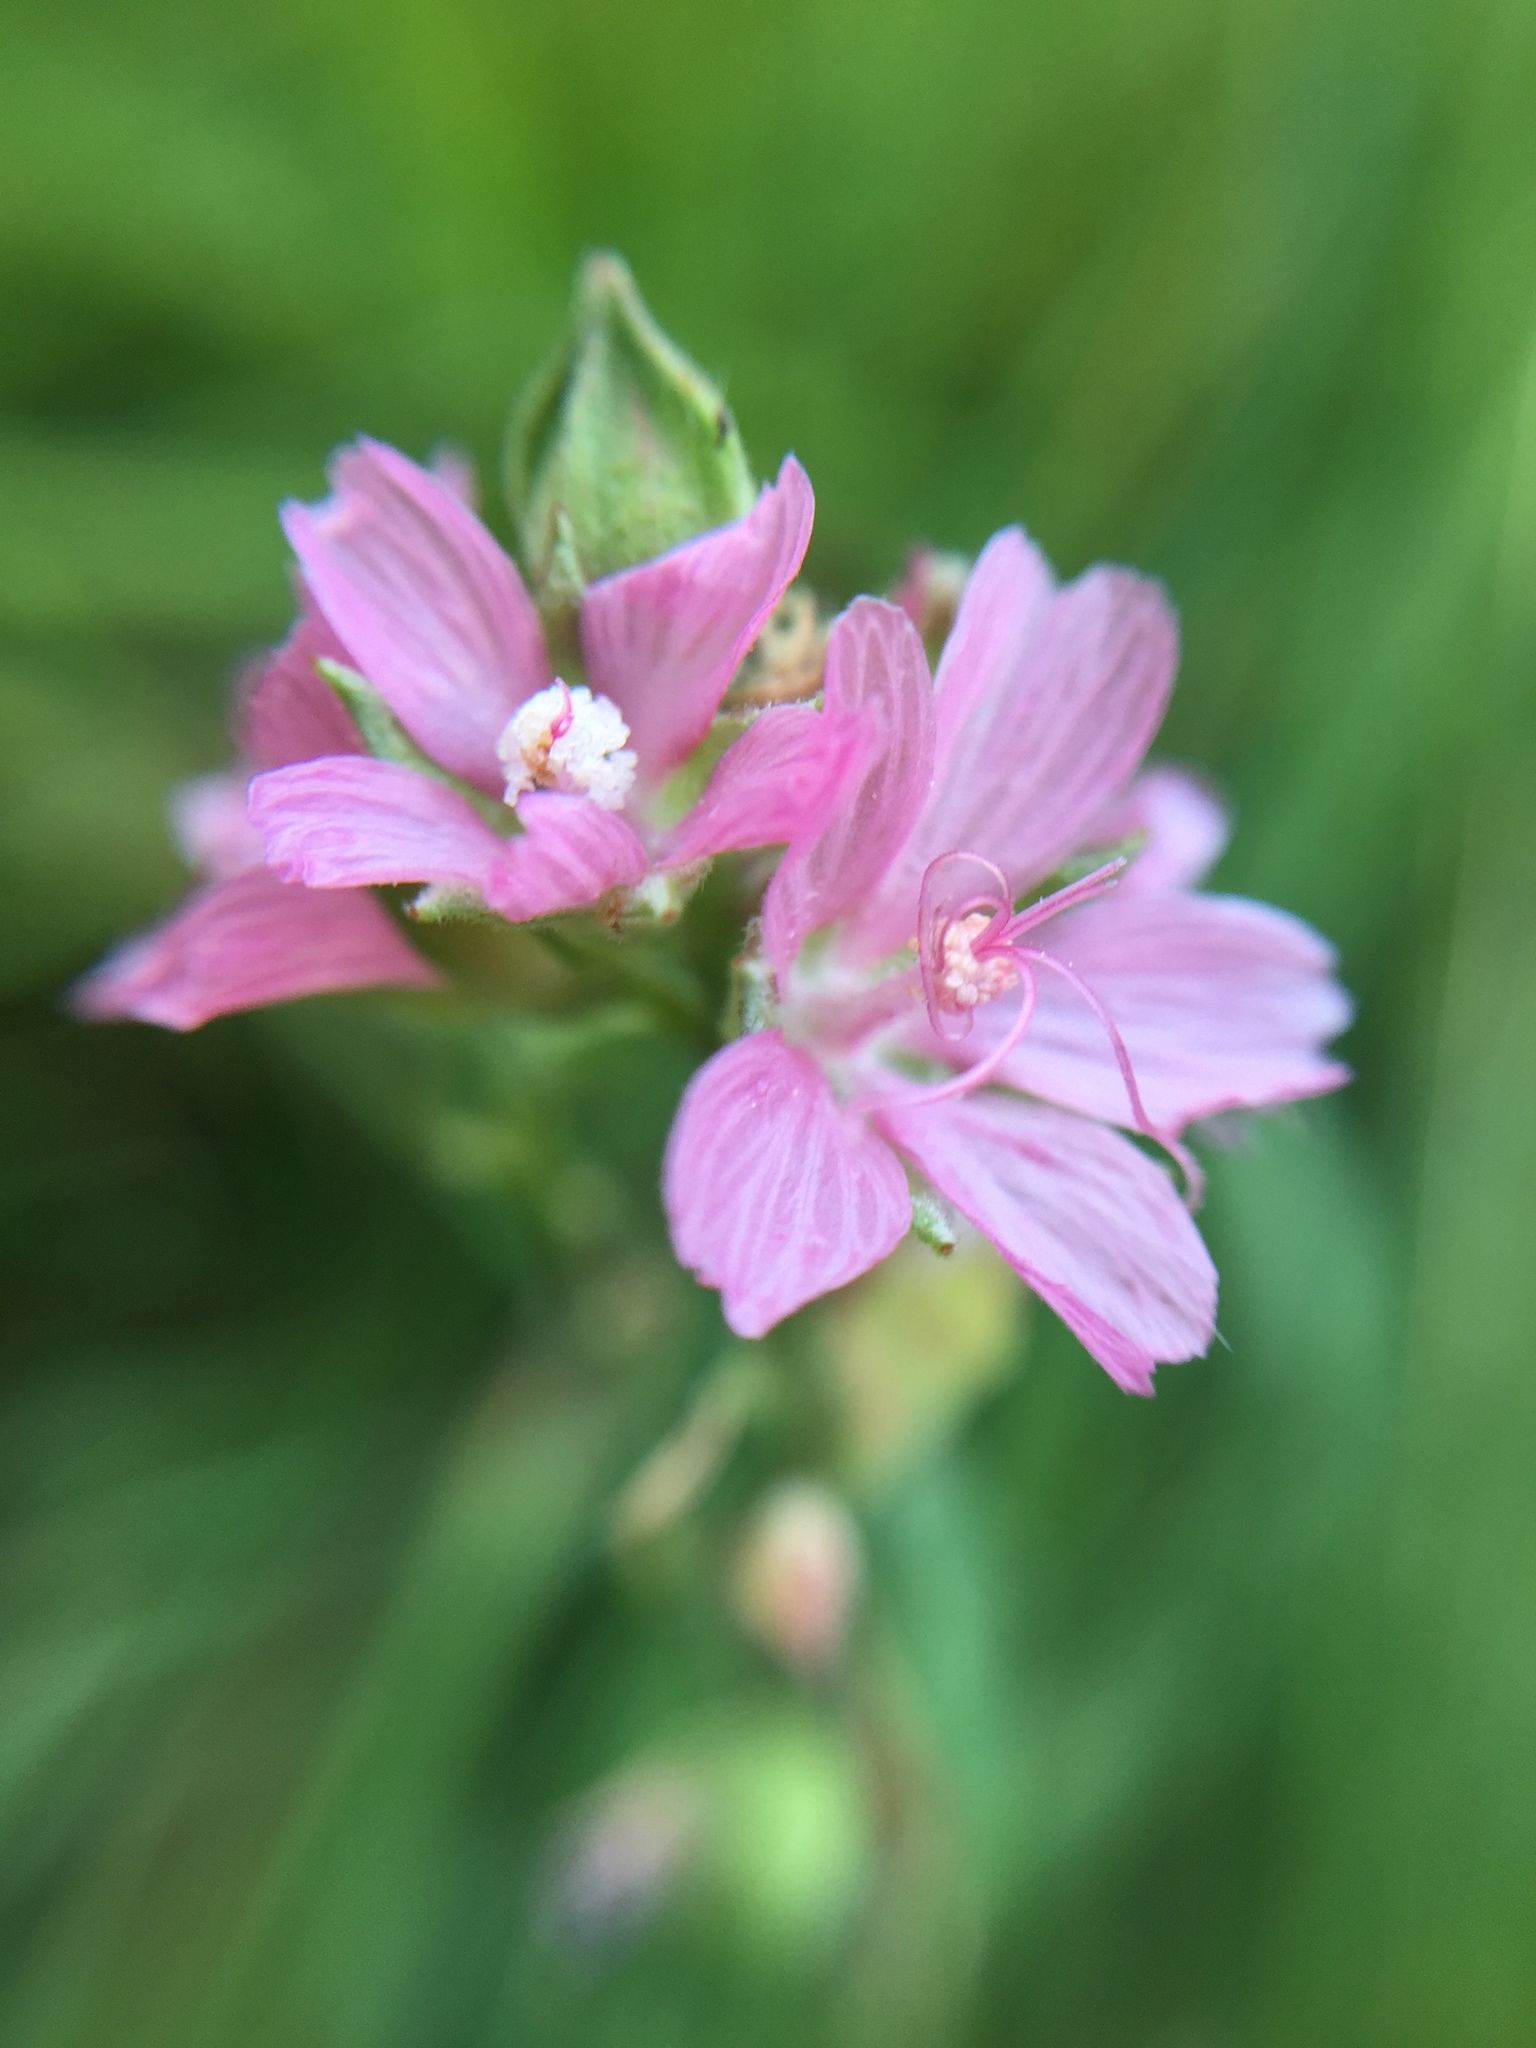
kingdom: Plantae
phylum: Tracheophyta
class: Magnoliopsida
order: Malvales
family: Malvaceae
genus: Sidalcea
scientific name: Sidalcea oregana
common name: Oregon checker-mallow
